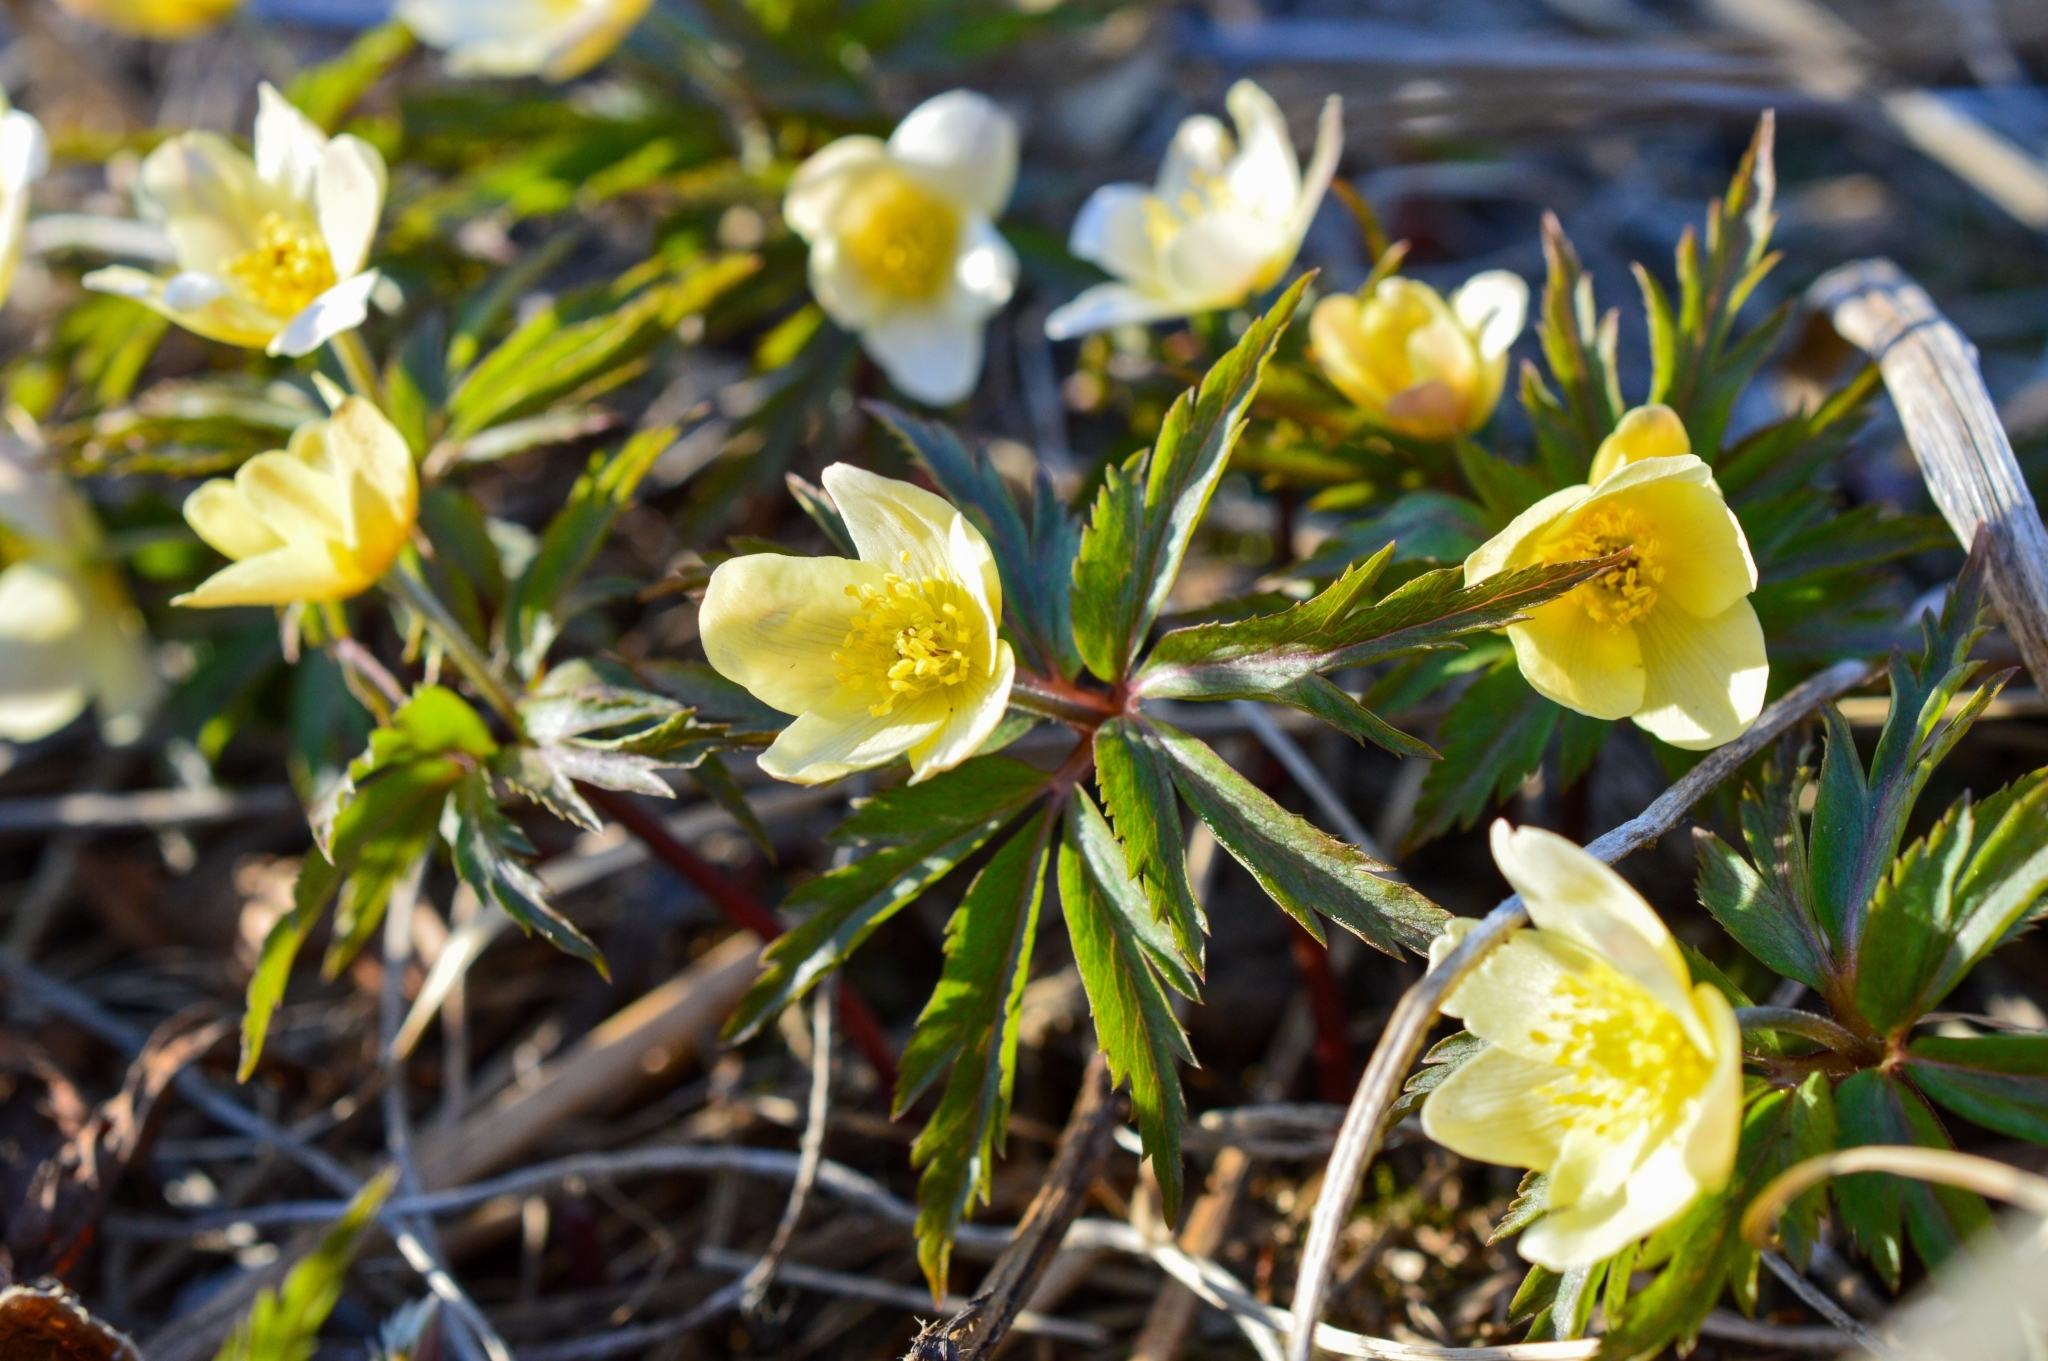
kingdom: Plantae
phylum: Tracheophyta
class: Magnoliopsida
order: Ranunculales
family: Ranunculaceae
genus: Anemone
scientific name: Anemone korzchinskyi
